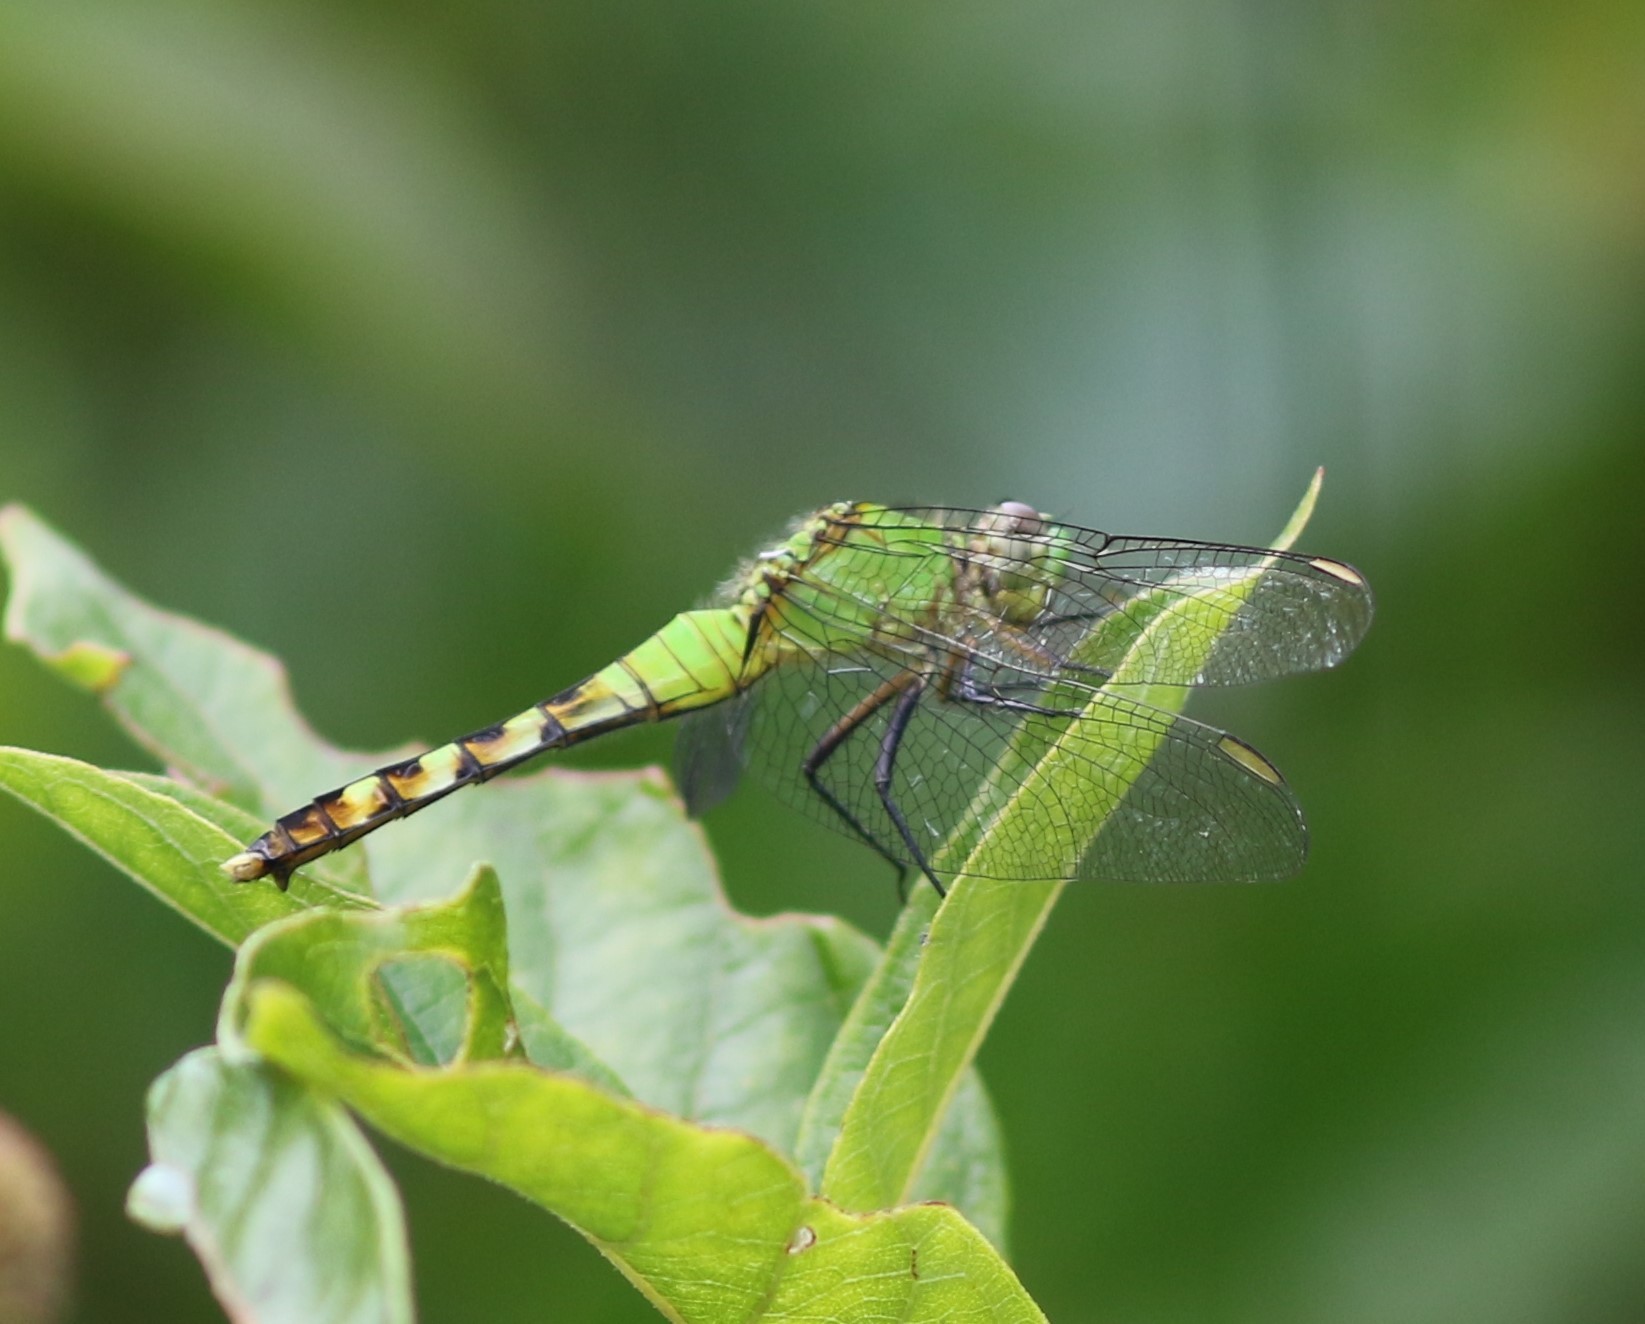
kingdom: Animalia
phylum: Arthropoda
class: Insecta
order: Odonata
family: Libellulidae
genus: Erythemis
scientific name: Erythemis simplicicollis
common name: Eastern pondhawk
